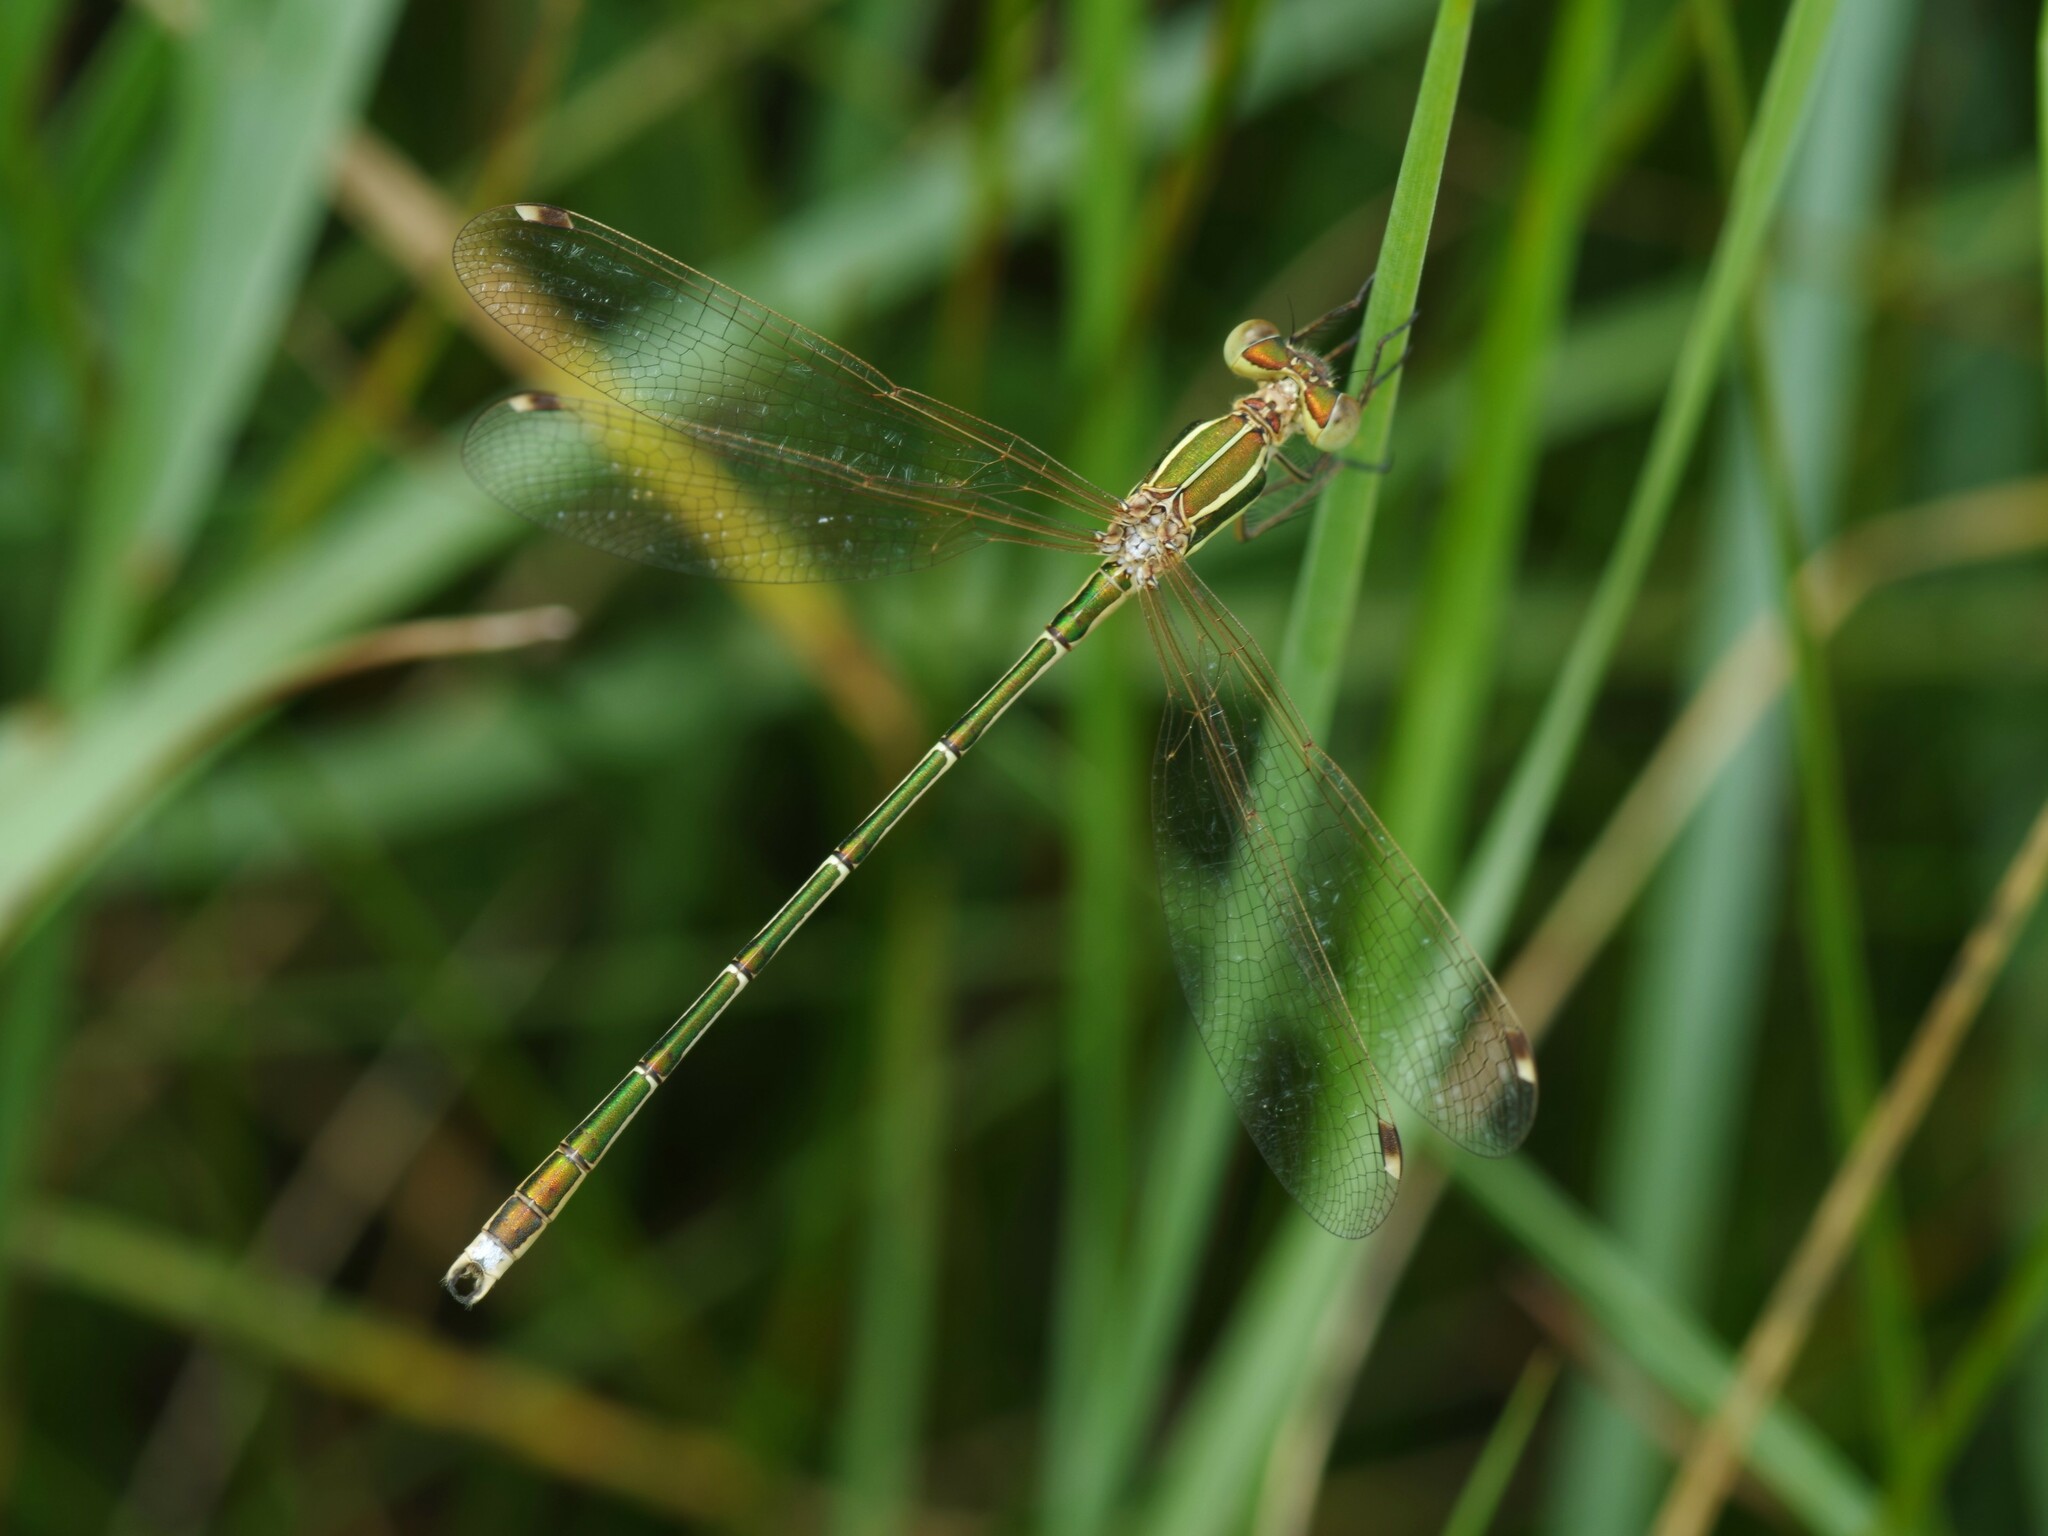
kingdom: Animalia
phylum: Arthropoda
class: Insecta
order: Odonata
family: Lestidae
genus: Lestes
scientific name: Lestes barbarus
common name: Migrant spreadwing
